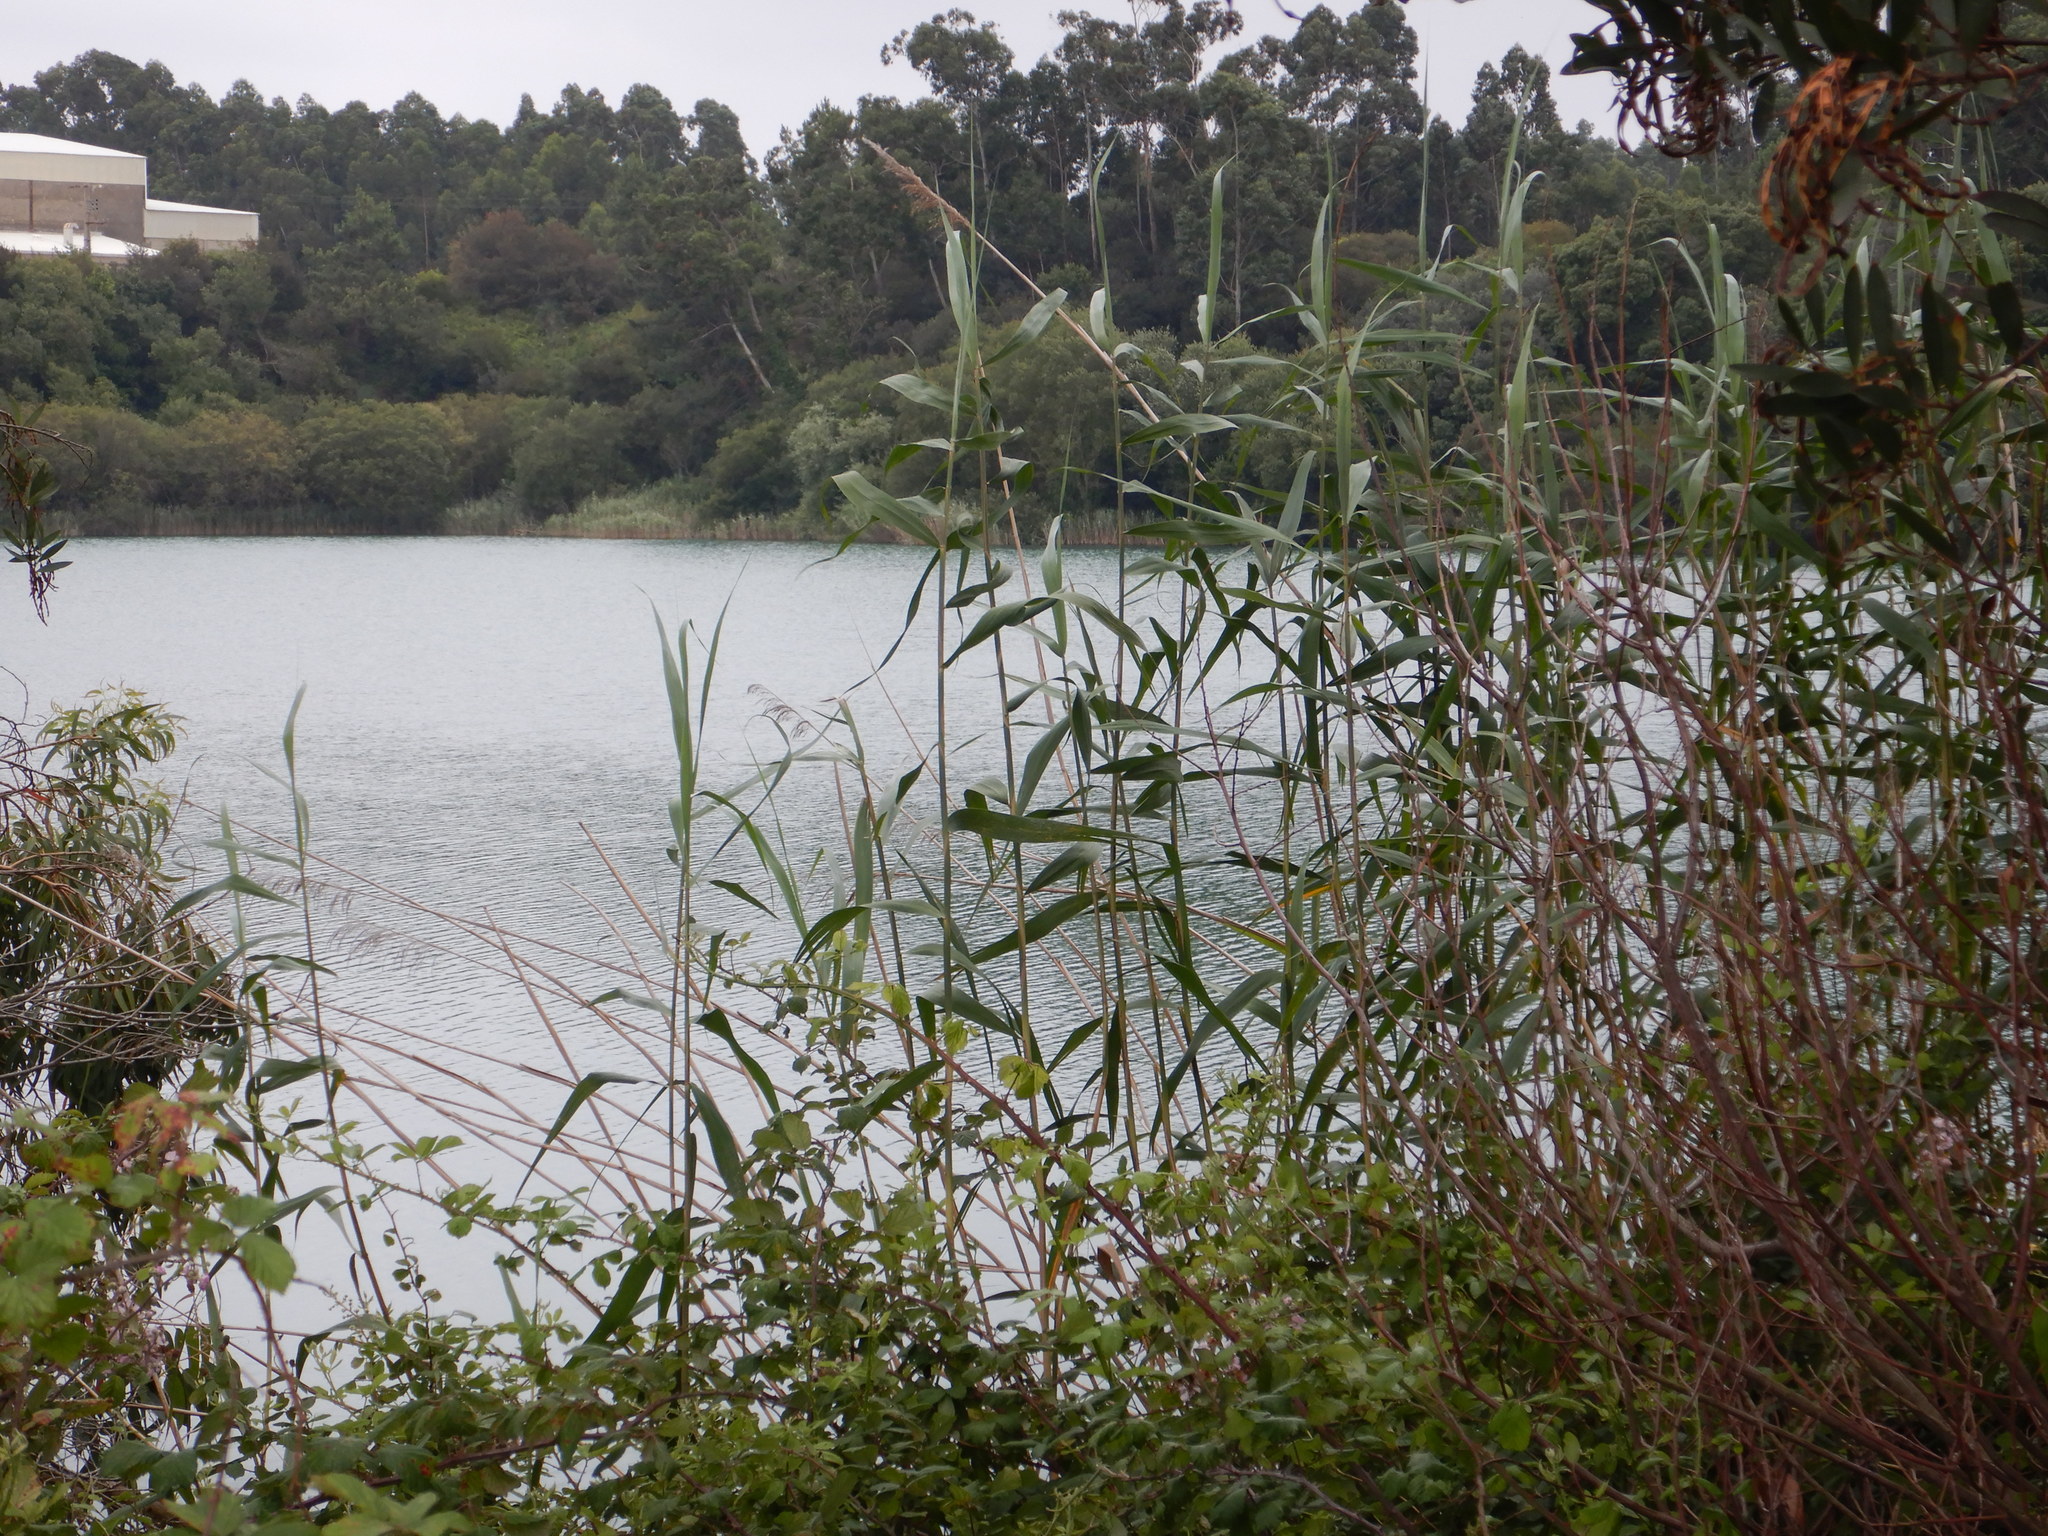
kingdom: Plantae
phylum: Tracheophyta
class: Liliopsida
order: Poales
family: Poaceae
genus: Phragmites
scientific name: Phragmites australis
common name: Common reed
